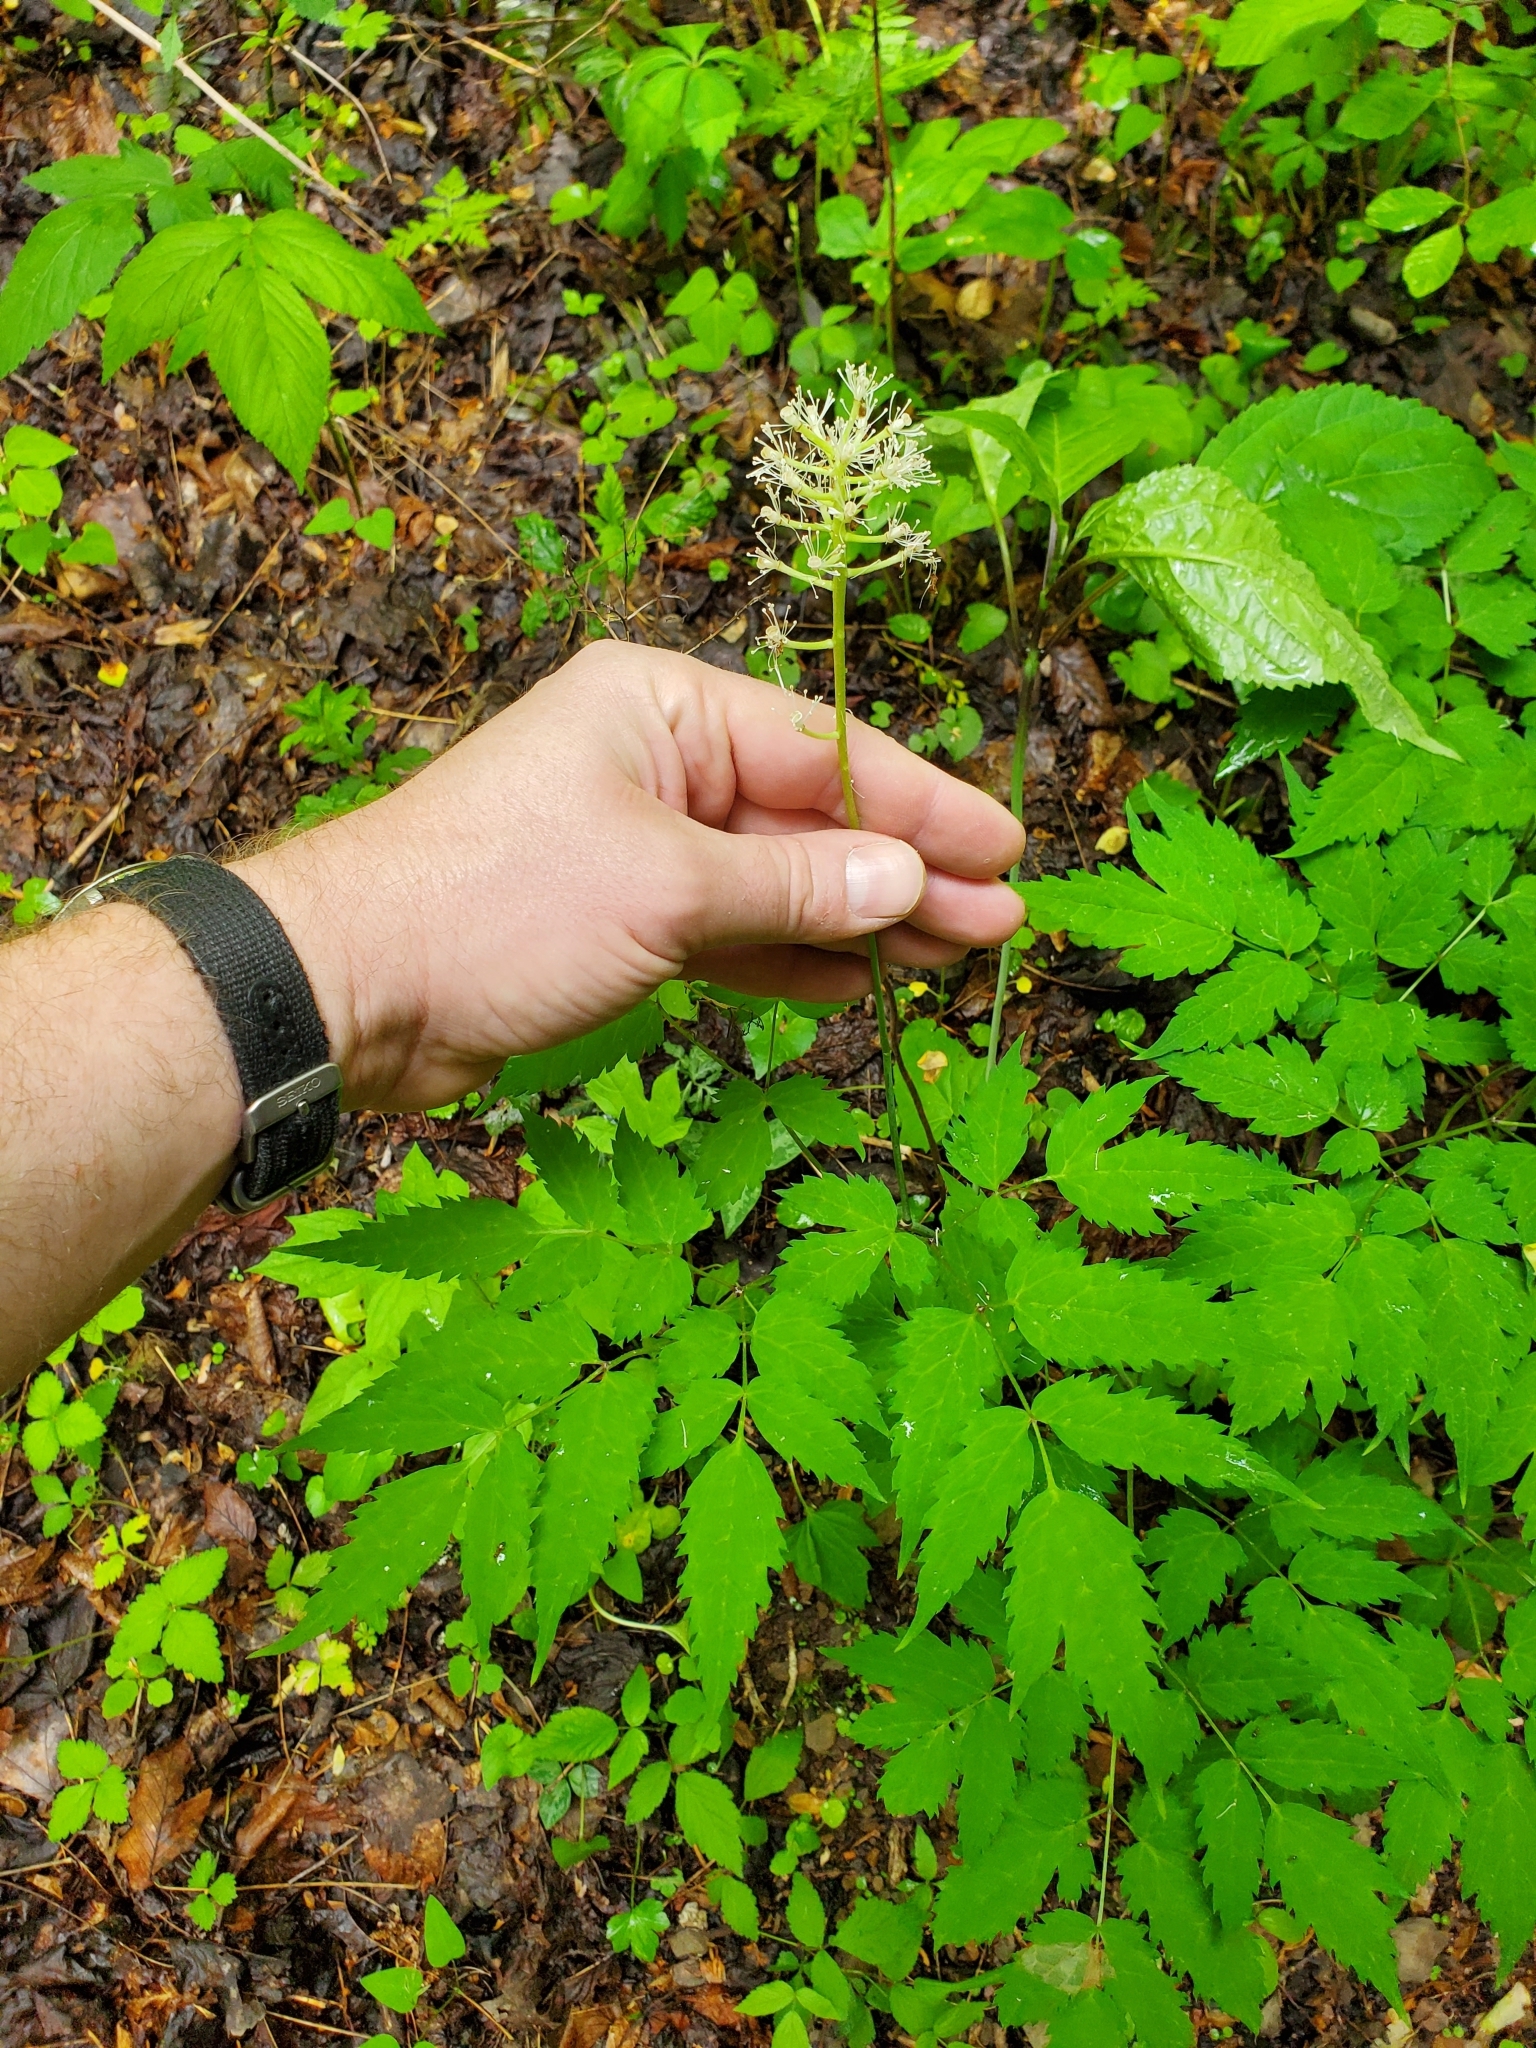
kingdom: Plantae
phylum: Tracheophyta
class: Magnoliopsida
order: Ranunculales
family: Ranunculaceae
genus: Actaea
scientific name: Actaea pachypoda
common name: Doll's-eyes
